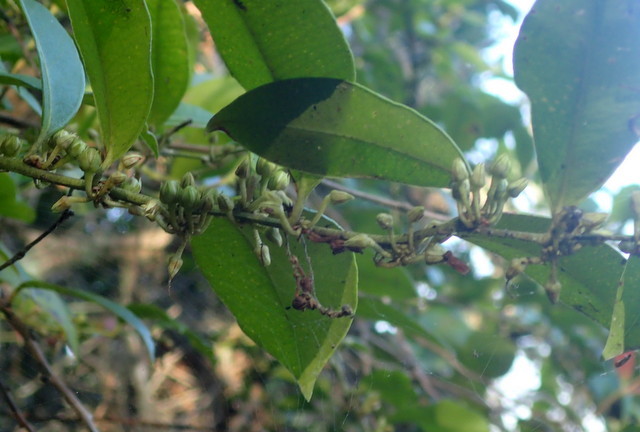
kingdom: Plantae
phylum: Tracheophyta
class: Magnoliopsida
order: Ericales
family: Ericaceae
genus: Lyonia
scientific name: Lyonia lucida
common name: Fetterbush
